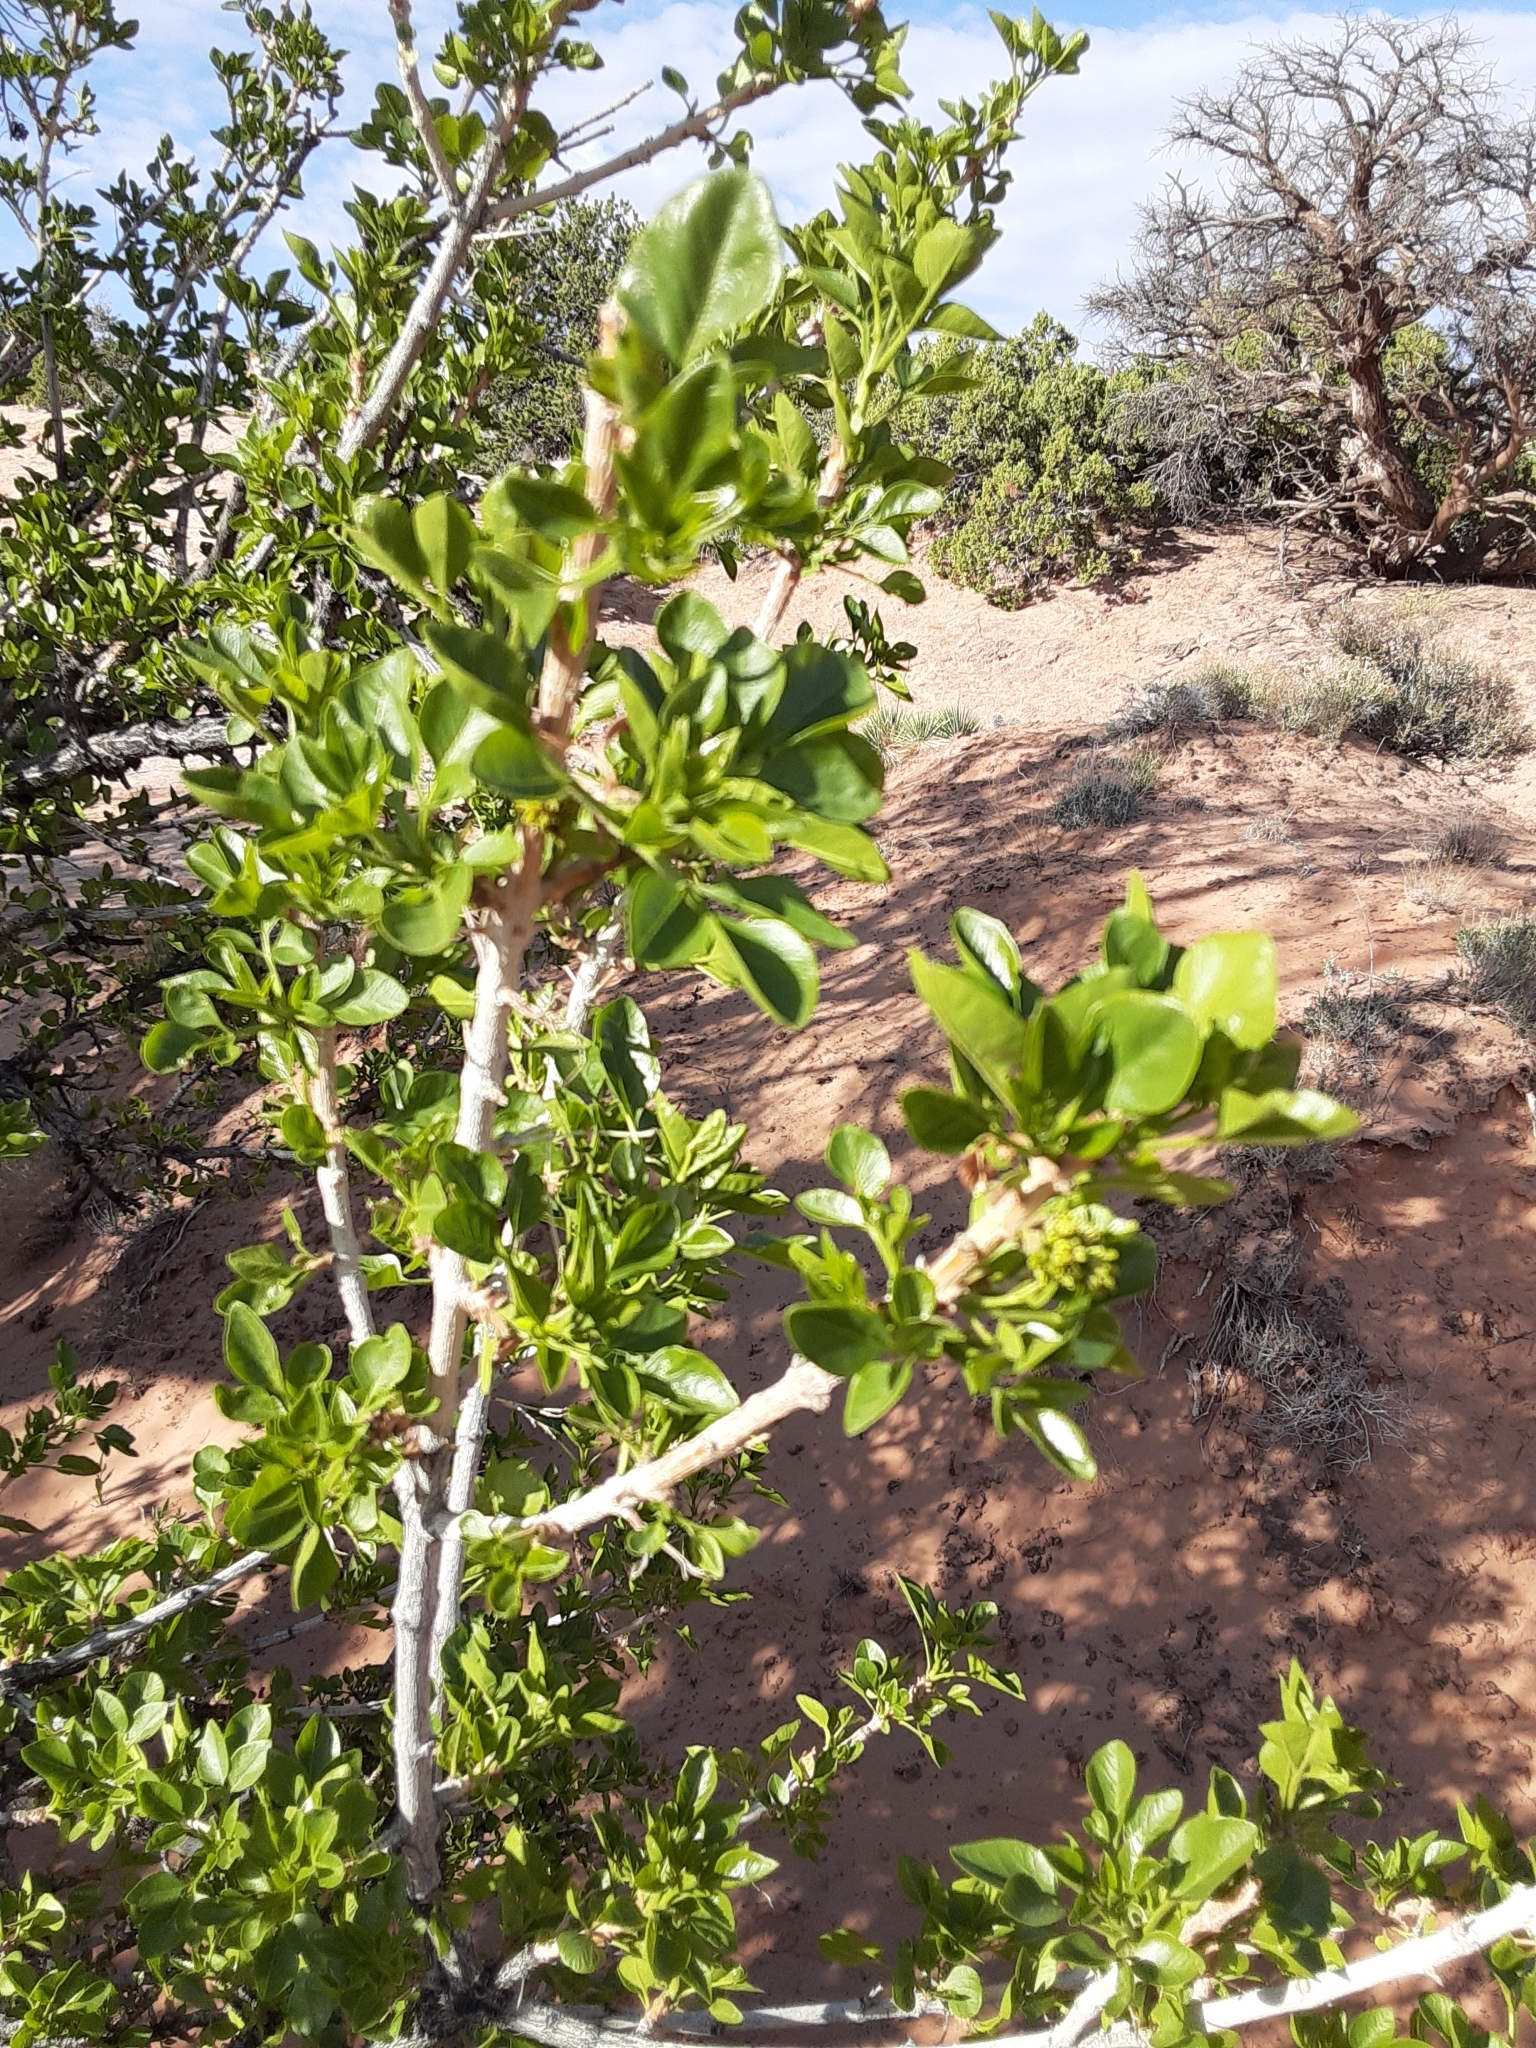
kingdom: Plantae
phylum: Tracheophyta
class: Magnoliopsida
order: Lamiales
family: Oleaceae
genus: Fraxinus
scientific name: Fraxinus anomala
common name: Utah ash
